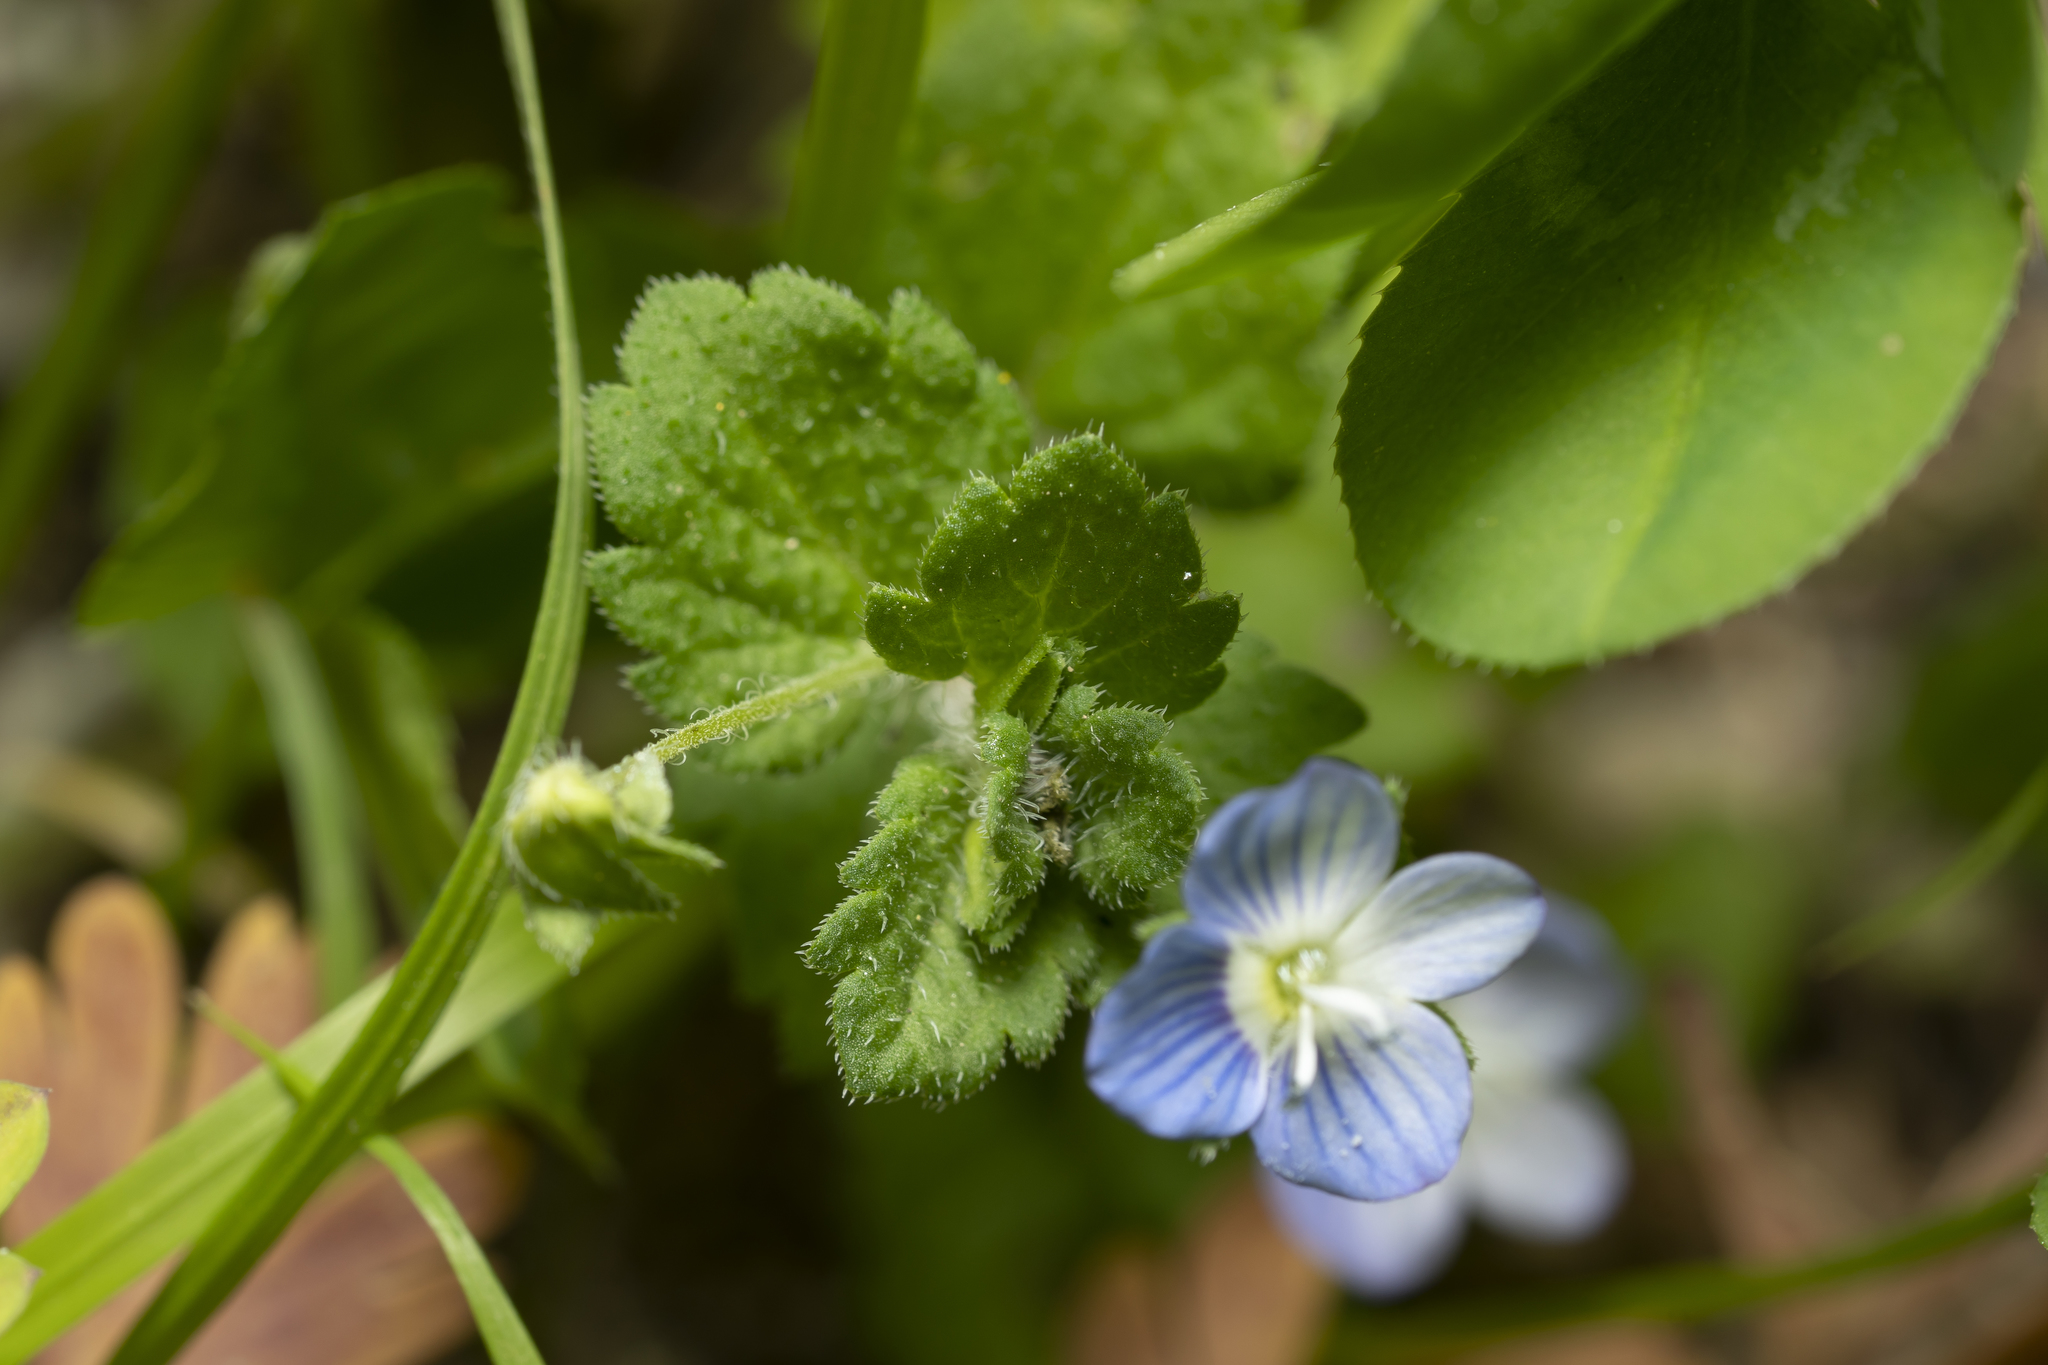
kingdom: Plantae
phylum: Tracheophyta
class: Magnoliopsida
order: Lamiales
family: Plantaginaceae
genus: Veronica
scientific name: Veronica persica
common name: Common field-speedwell
